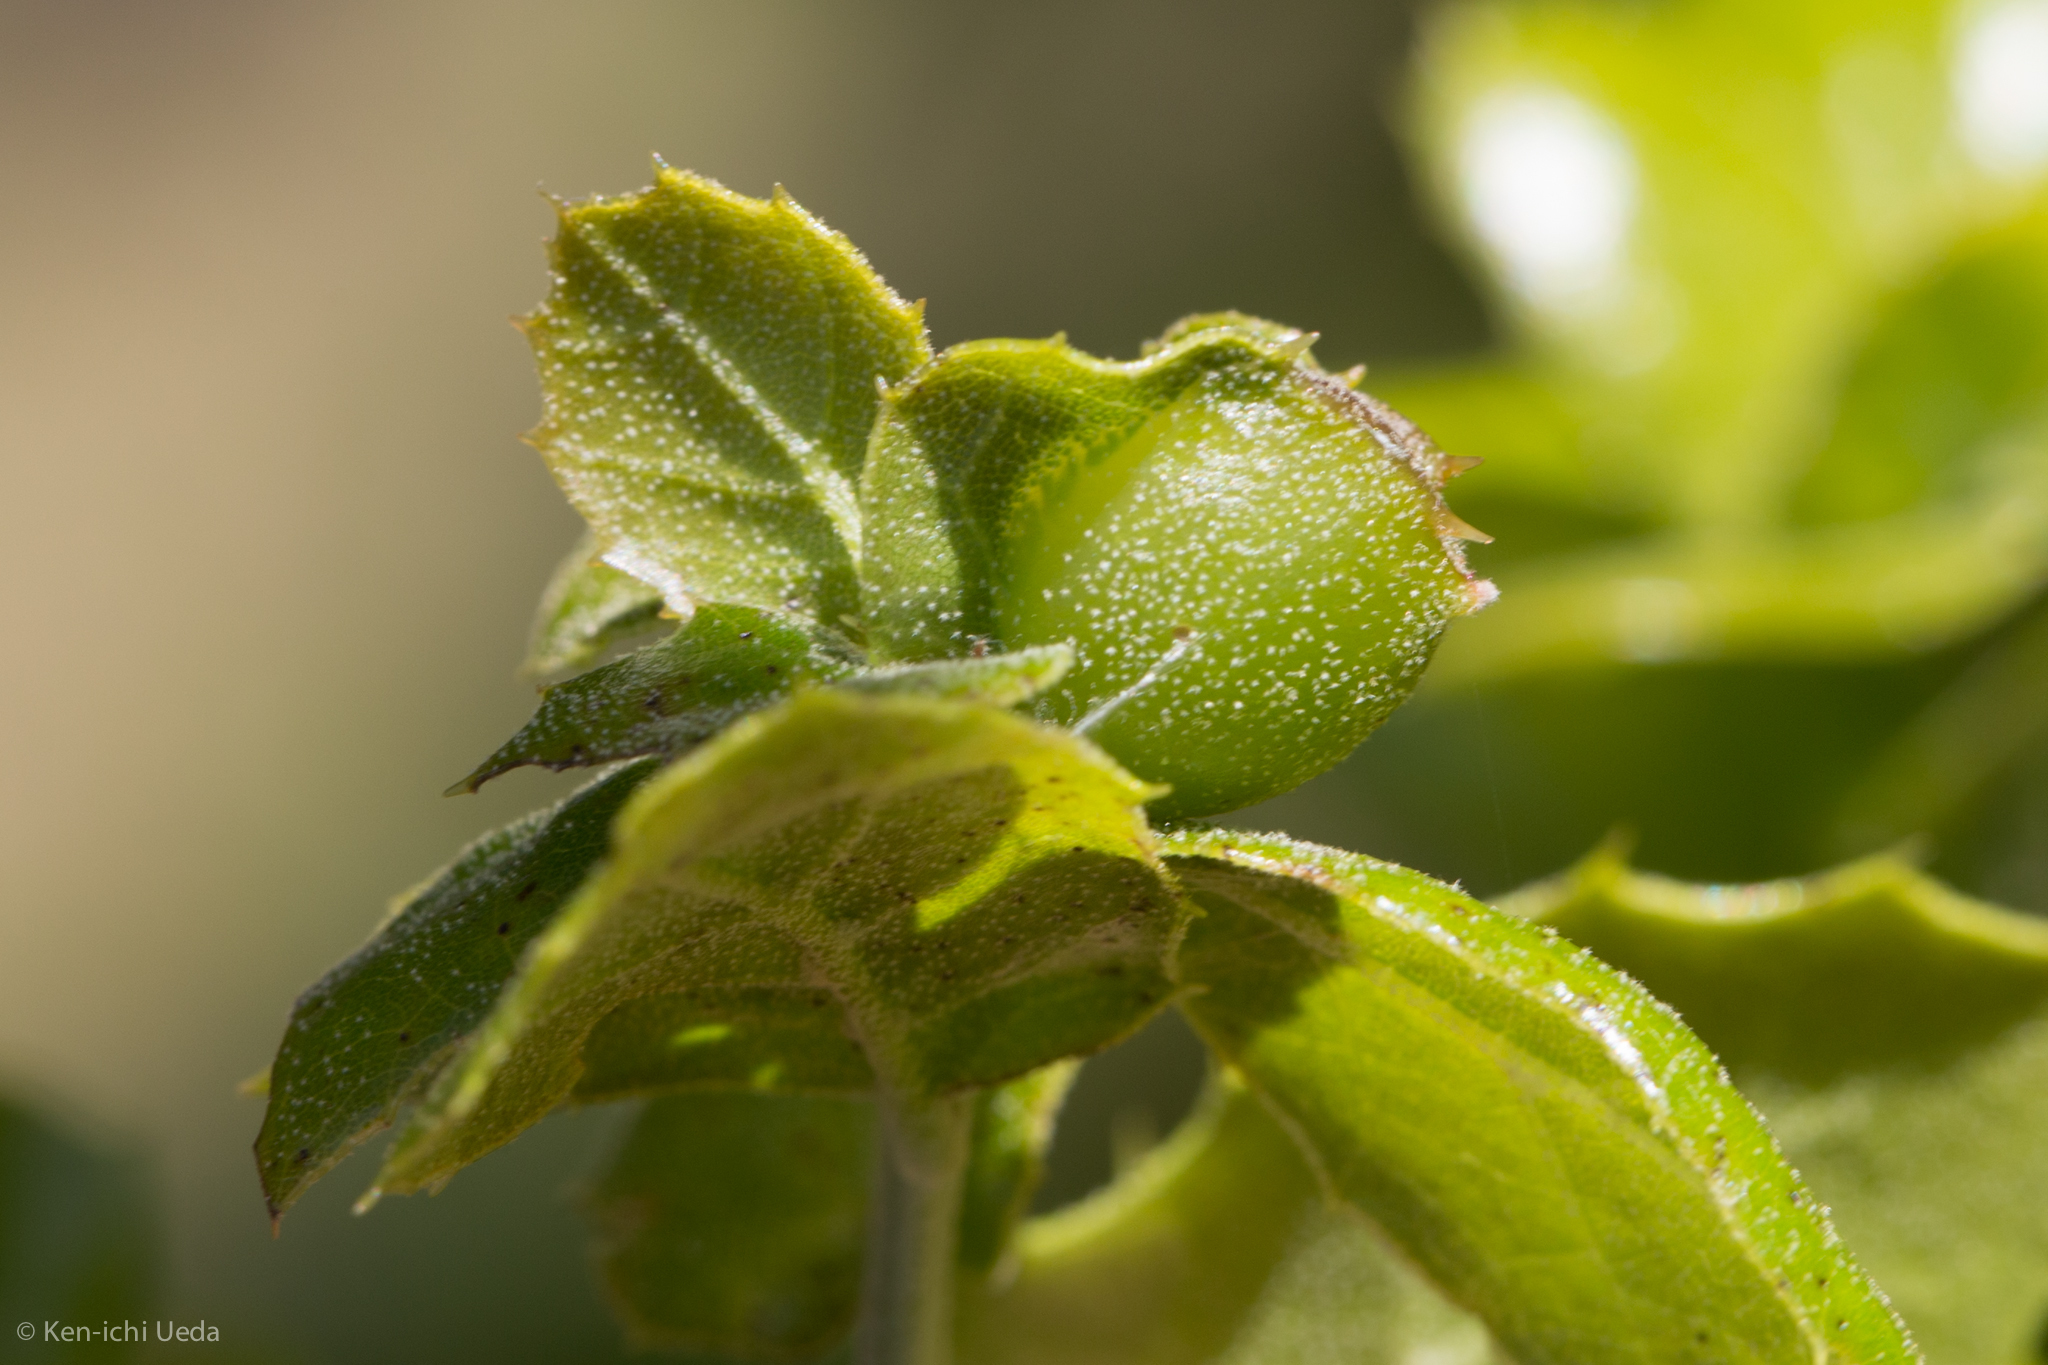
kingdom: Animalia
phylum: Arthropoda
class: Insecta
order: Hymenoptera
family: Cynipidae
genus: Callirhytis
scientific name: Callirhytis
